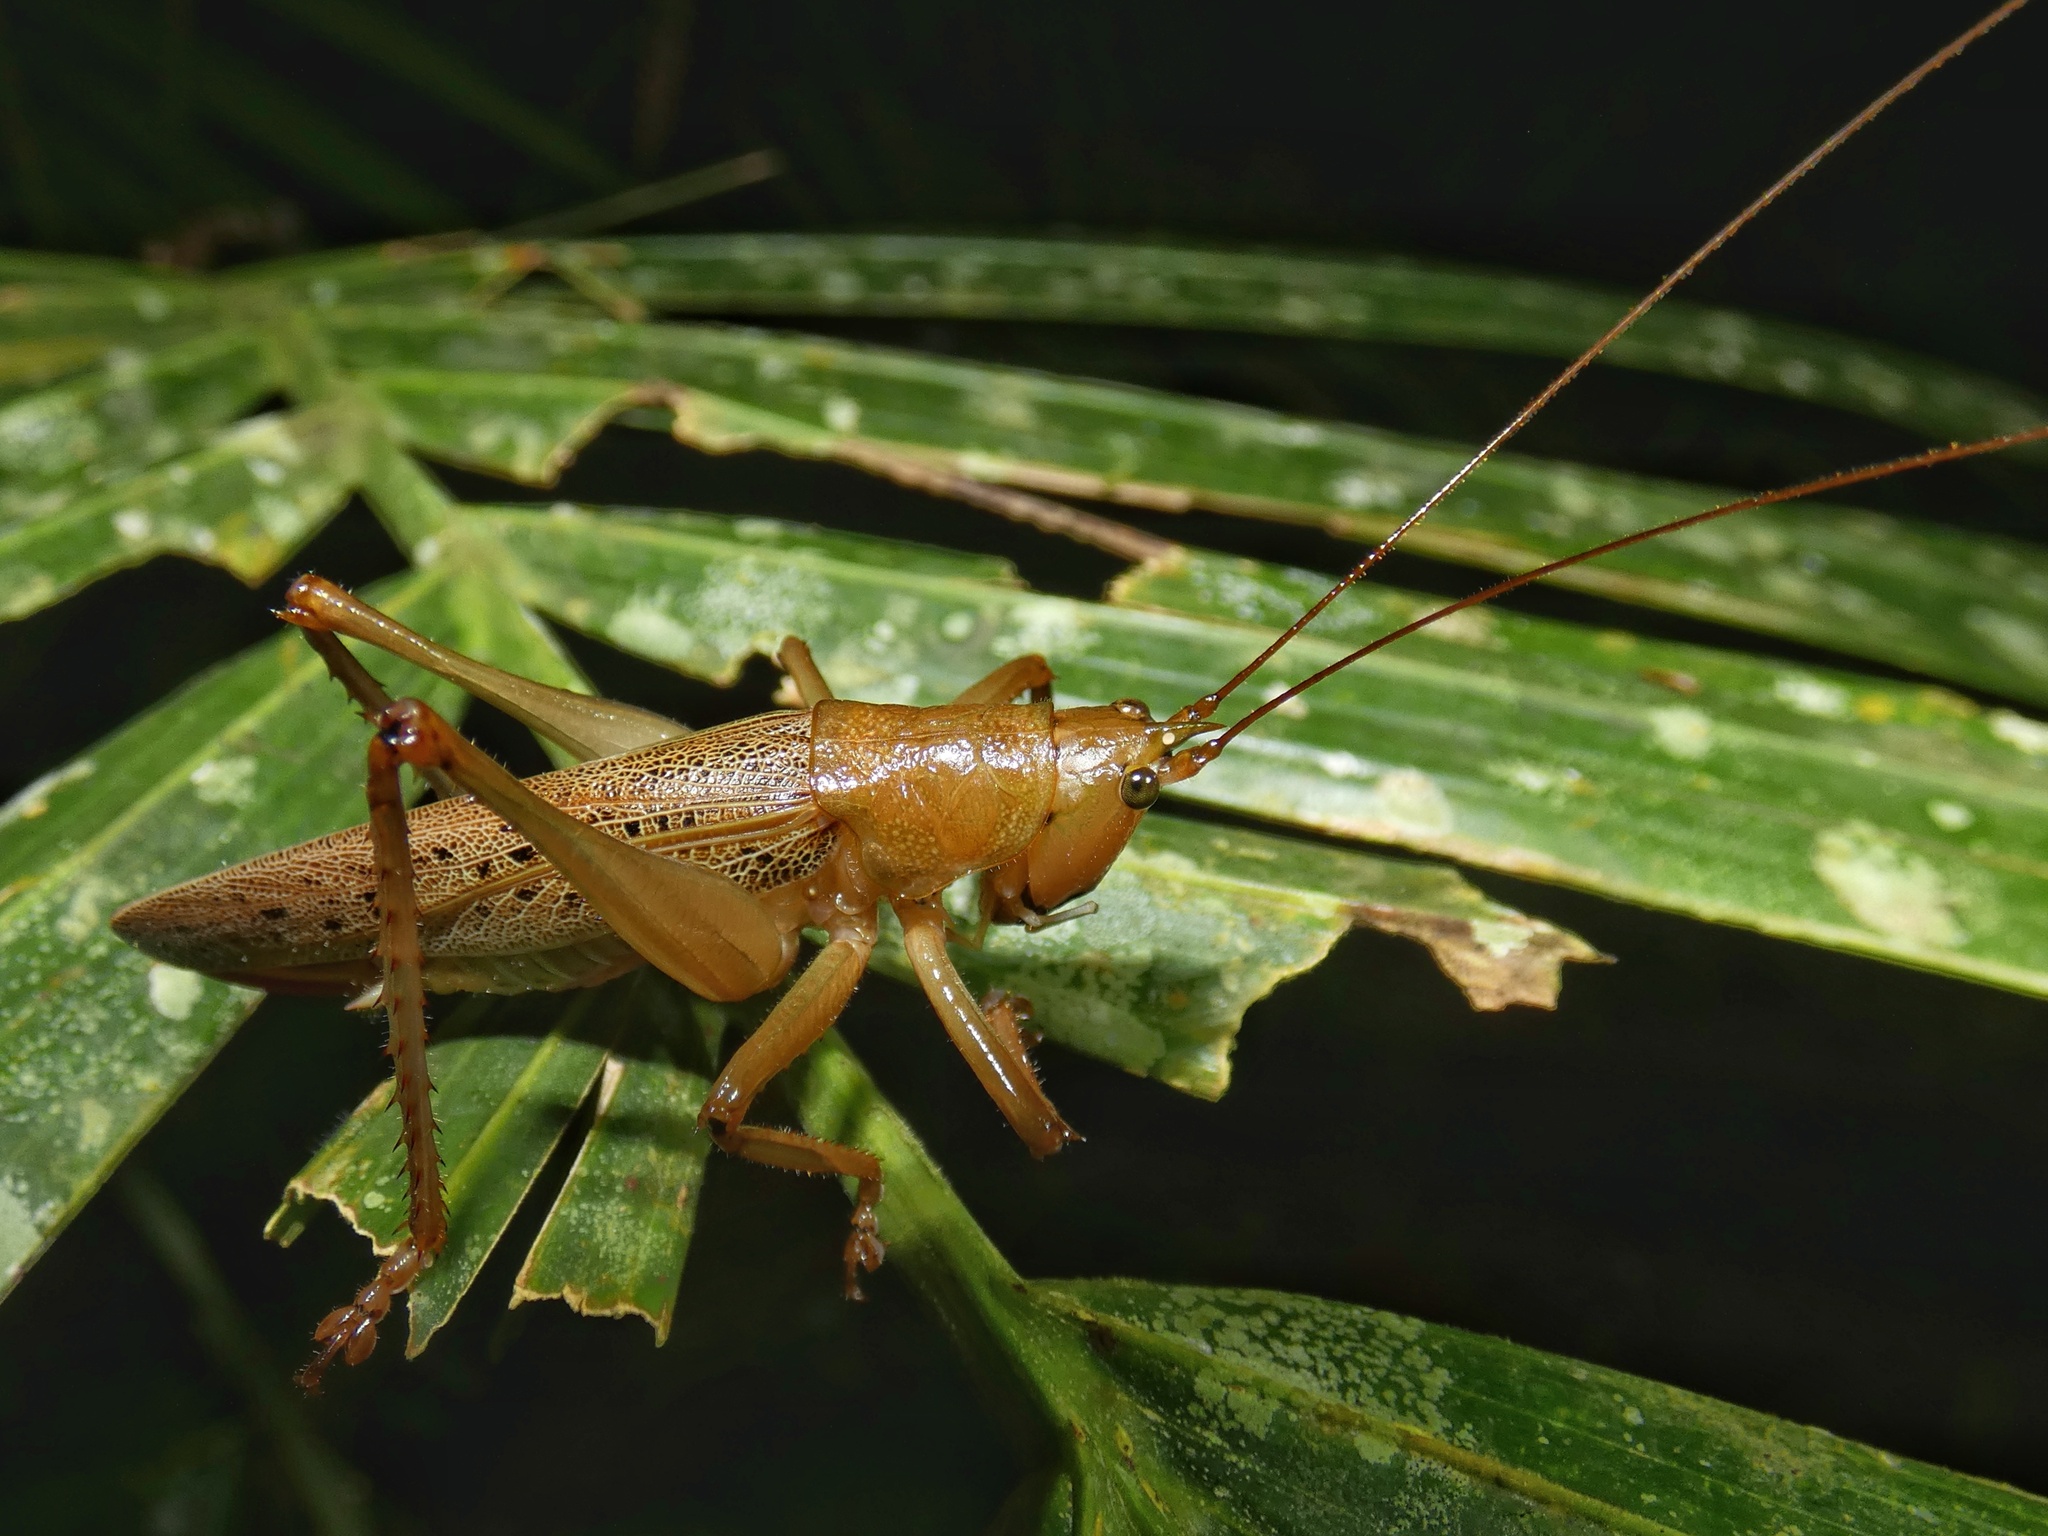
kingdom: Animalia
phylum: Arthropoda
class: Insecta
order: Orthoptera
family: Tettigoniidae
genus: Barbaragraecia
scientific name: Barbaragraecia richardsoni
